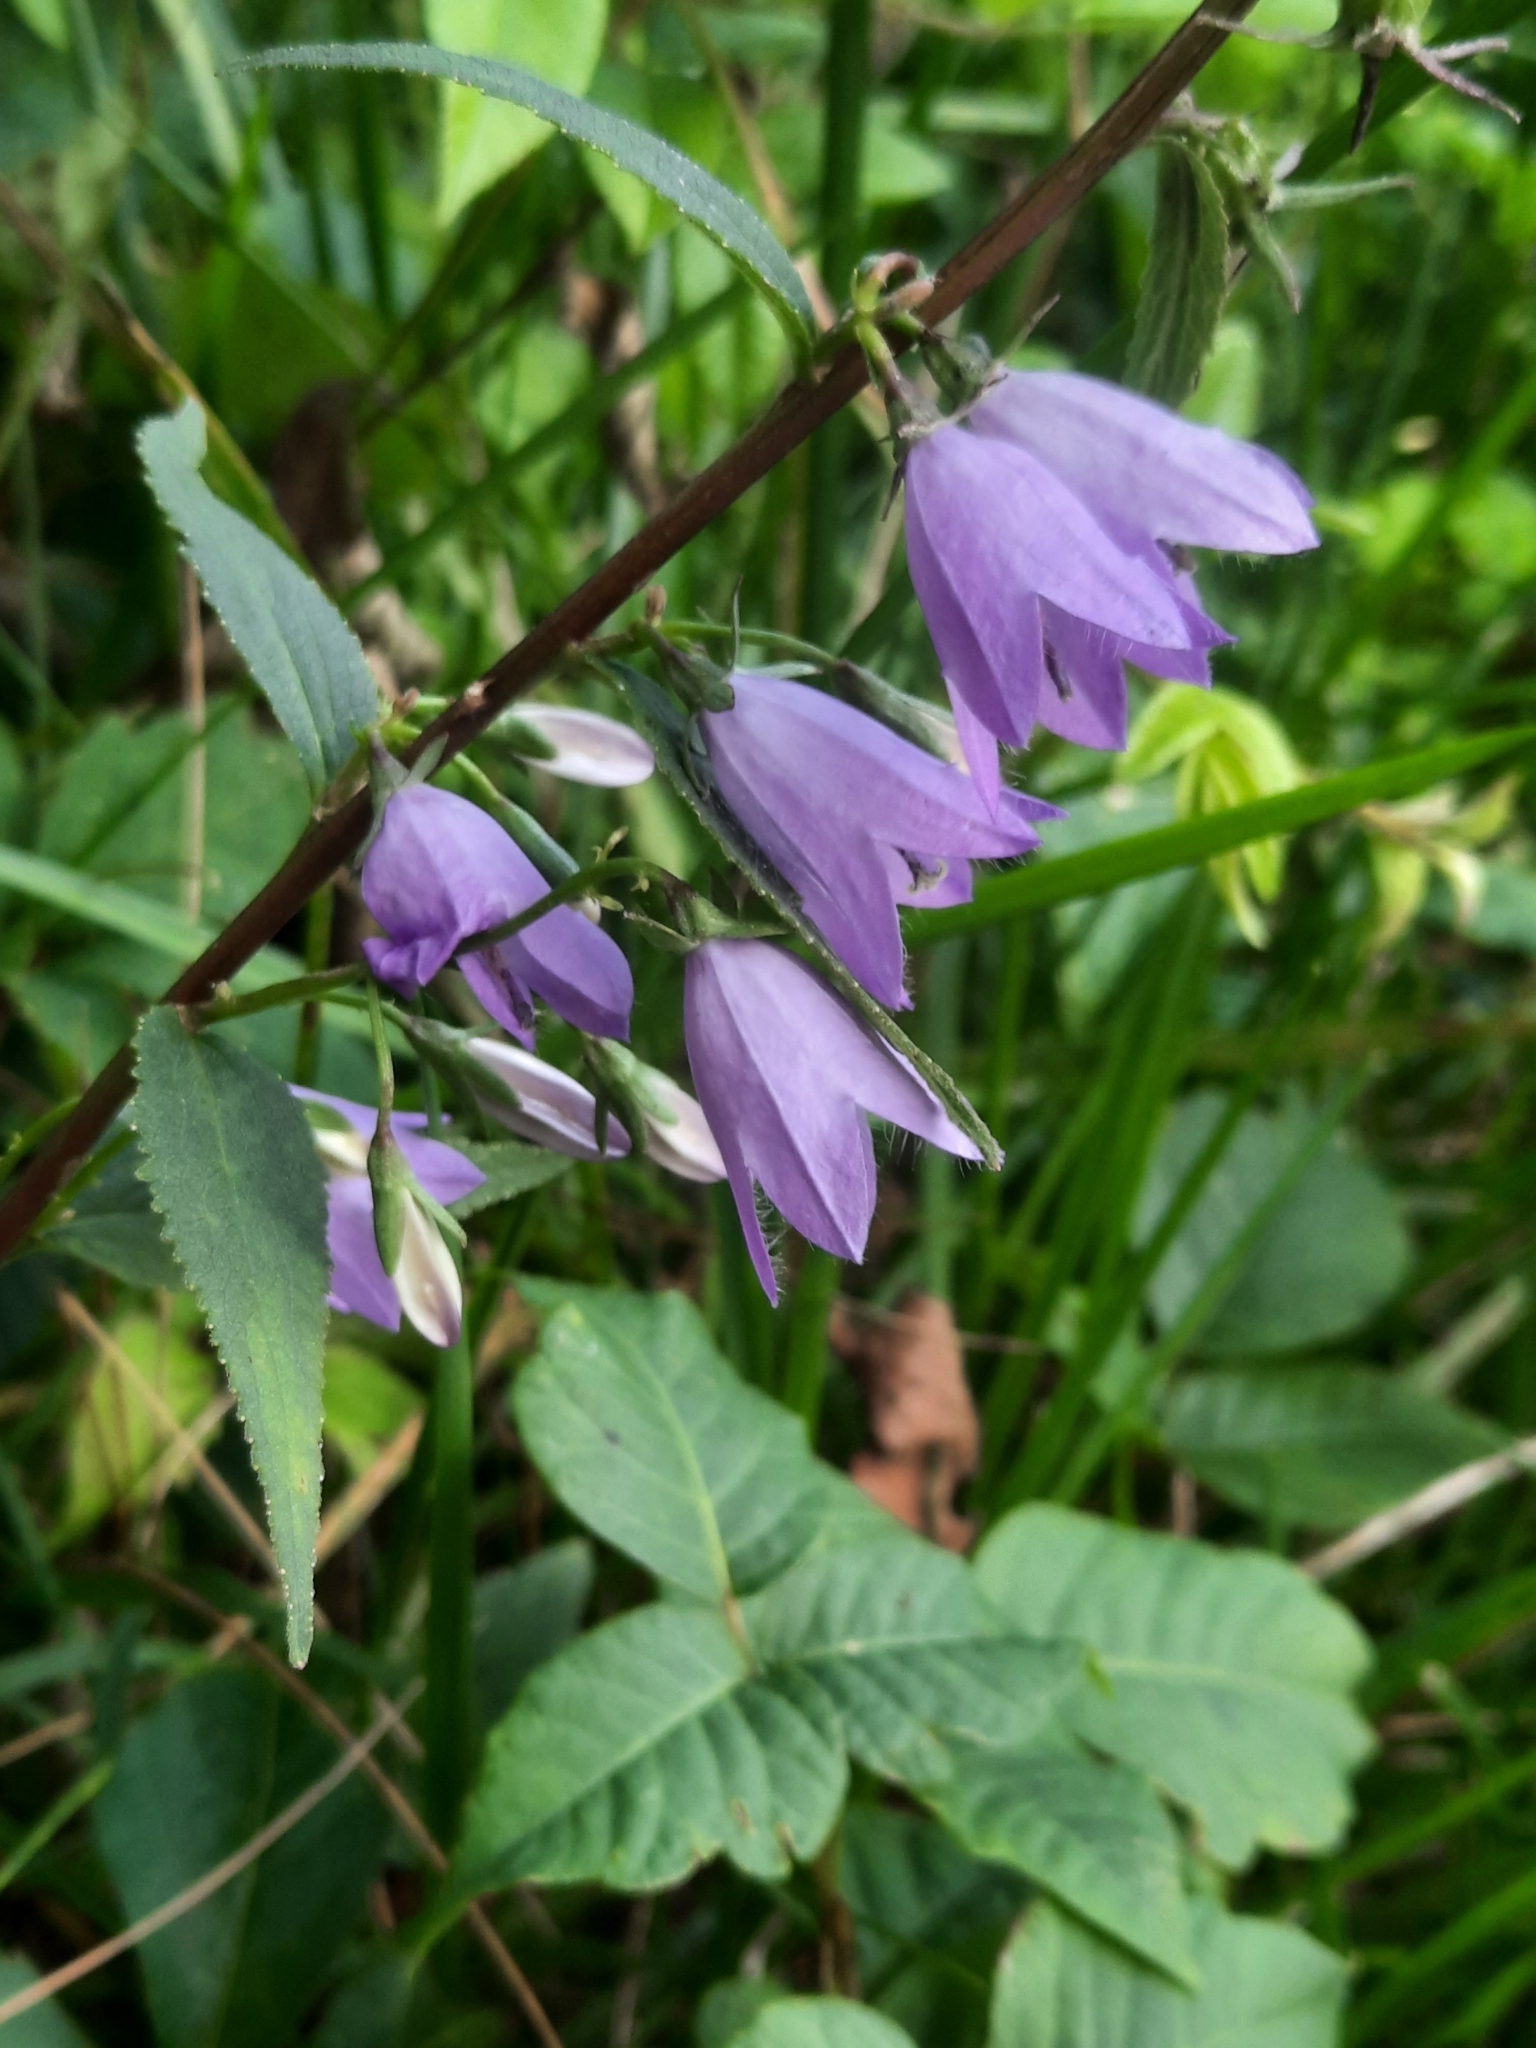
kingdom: Plantae
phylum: Tracheophyta
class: Magnoliopsida
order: Asterales
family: Campanulaceae
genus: Campanula
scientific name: Campanula rapunculoides
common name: Creeping bellflower
